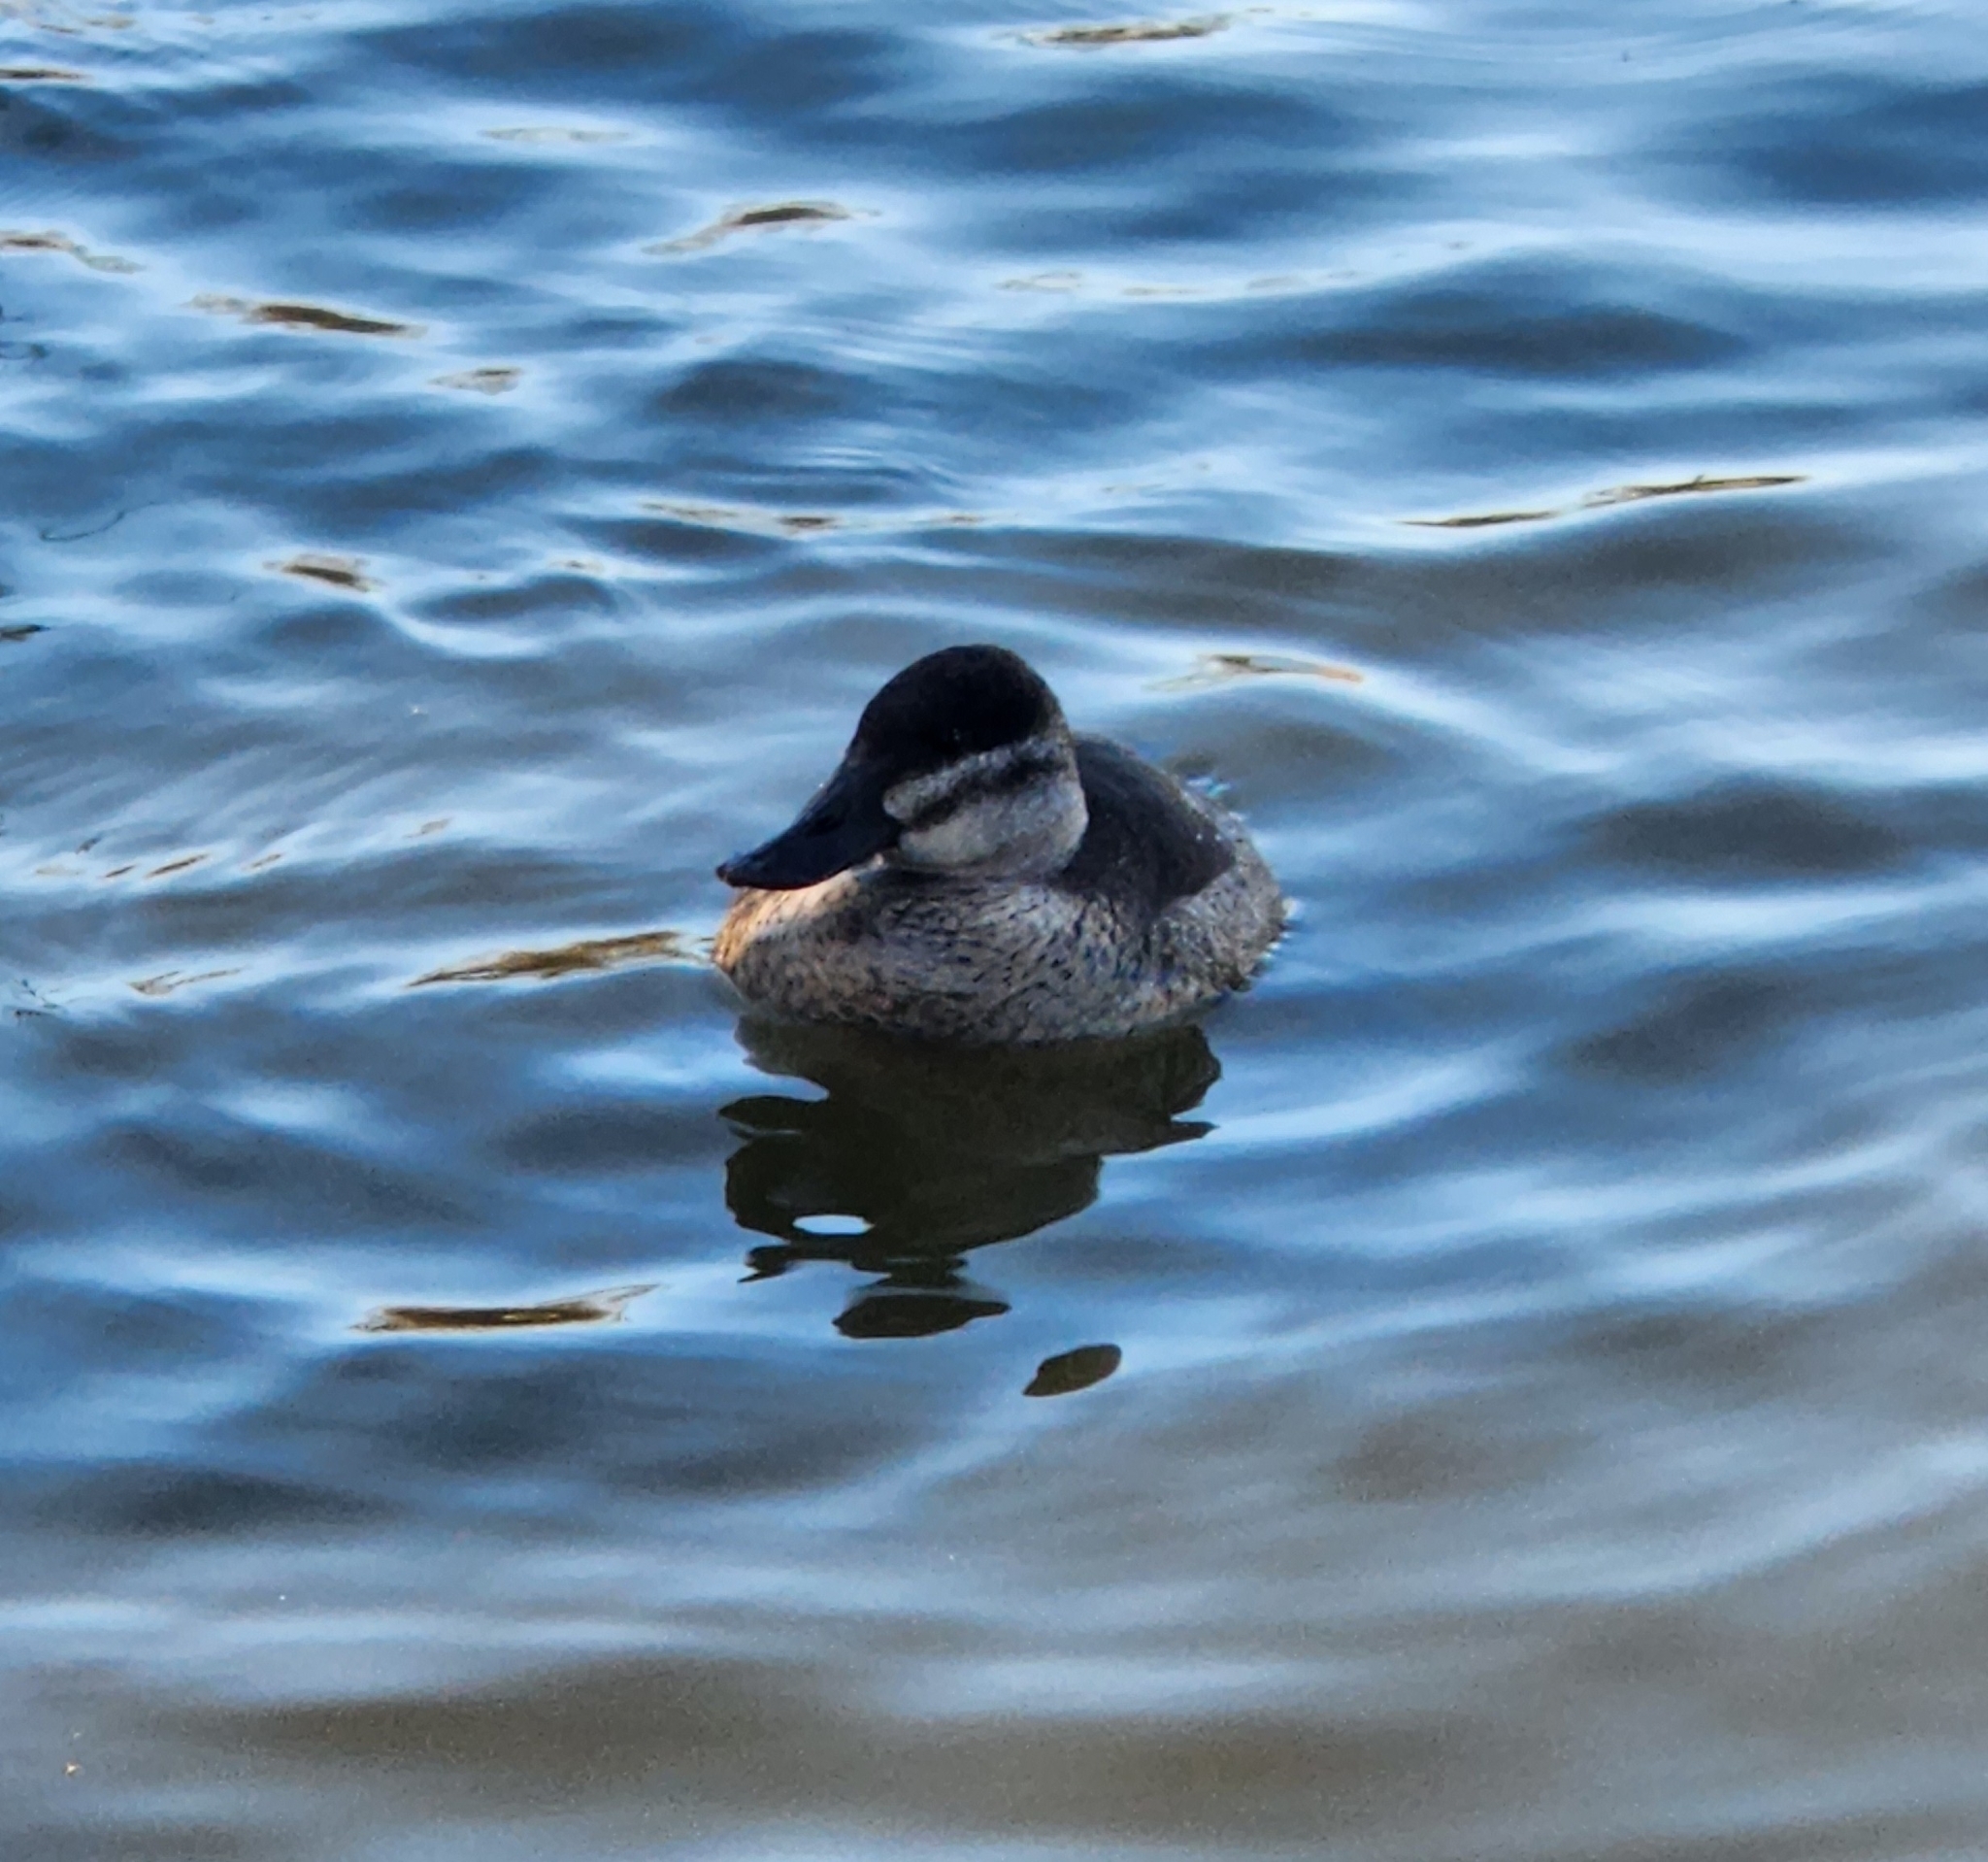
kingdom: Animalia
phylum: Chordata
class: Aves
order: Anseriformes
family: Anatidae
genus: Oxyura
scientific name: Oxyura jamaicensis
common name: Ruddy duck
